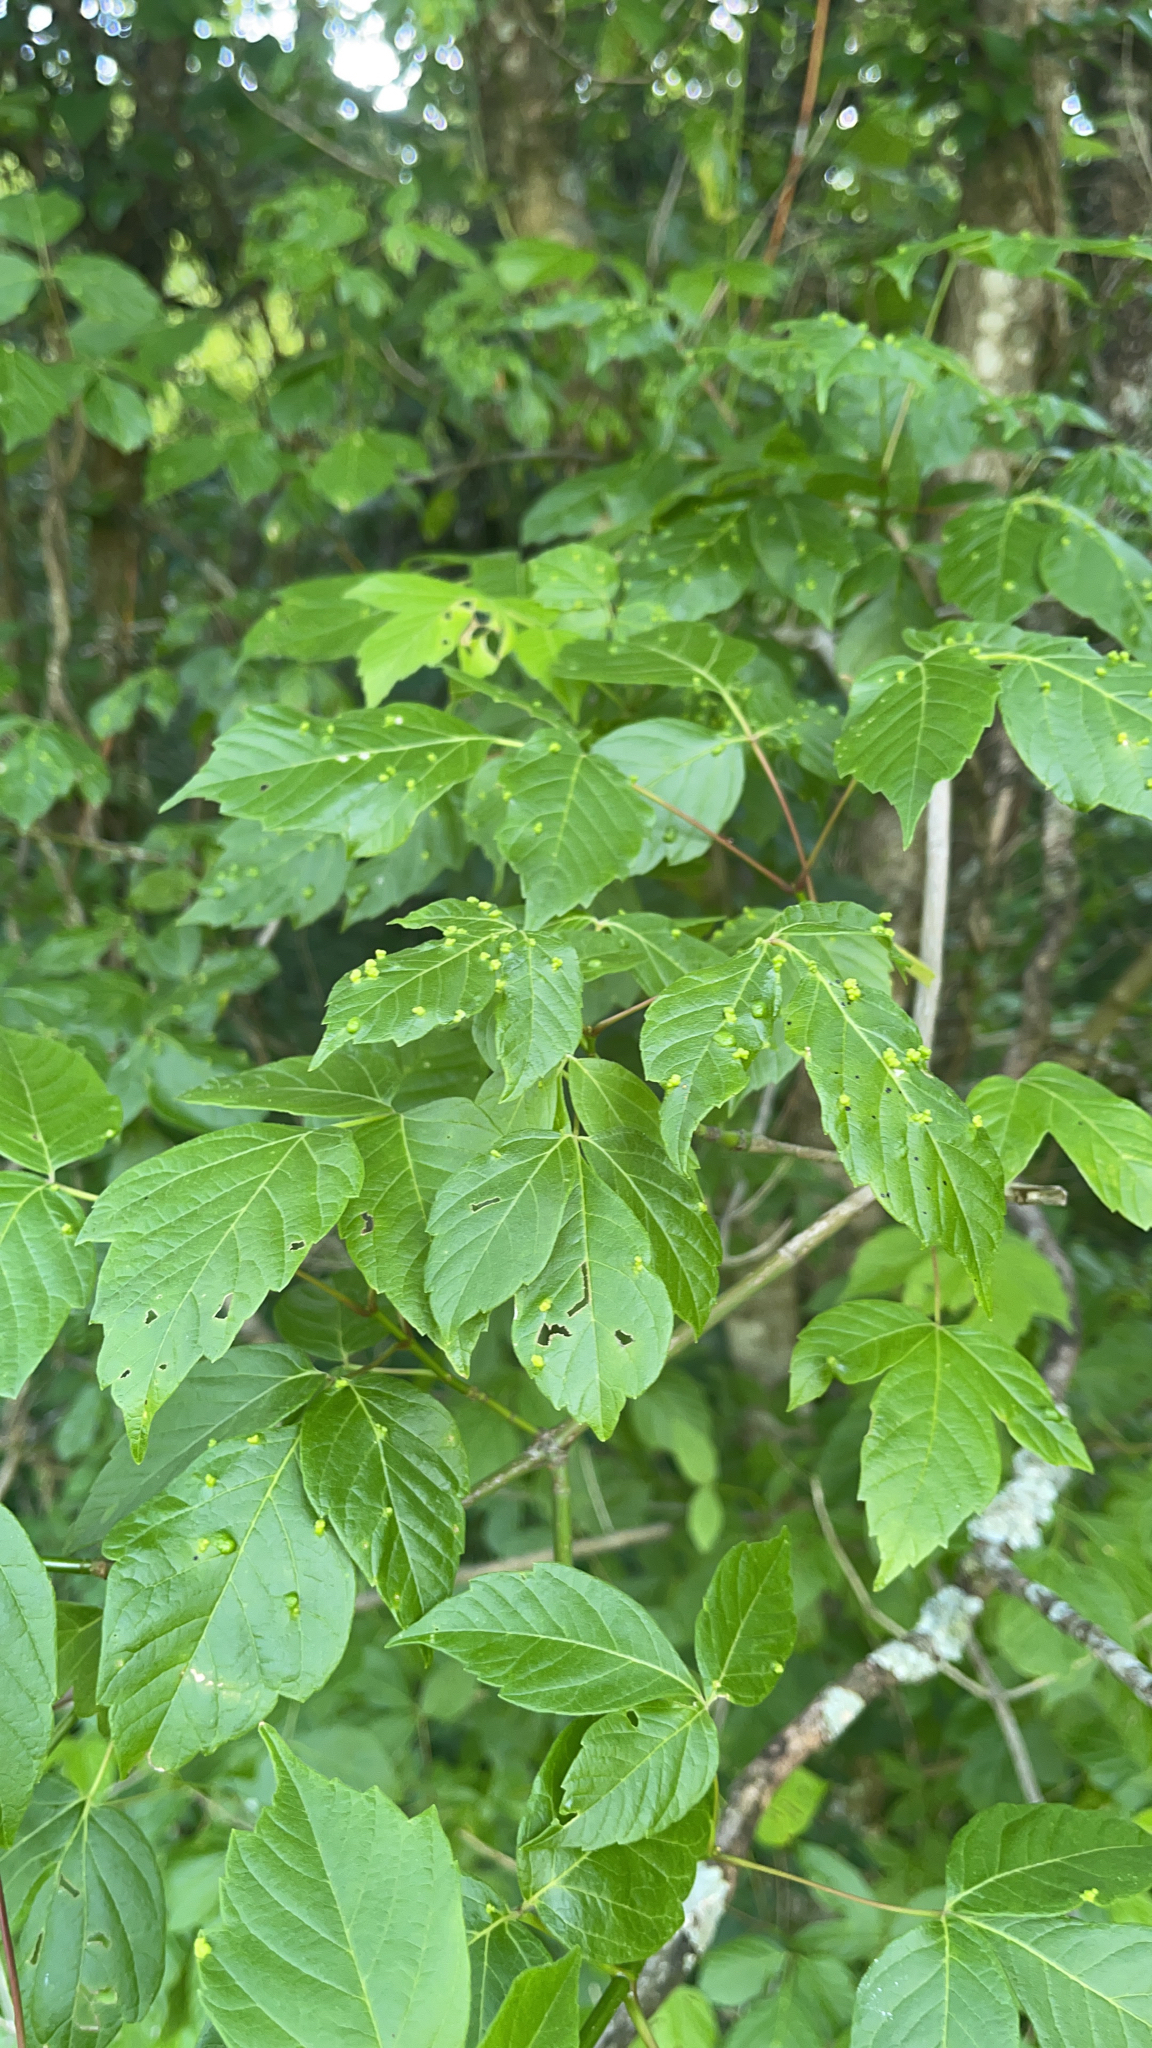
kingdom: Plantae
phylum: Tracheophyta
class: Magnoliopsida
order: Sapindales
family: Sapindaceae
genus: Acer
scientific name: Acer negundo
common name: Ashleaf maple
